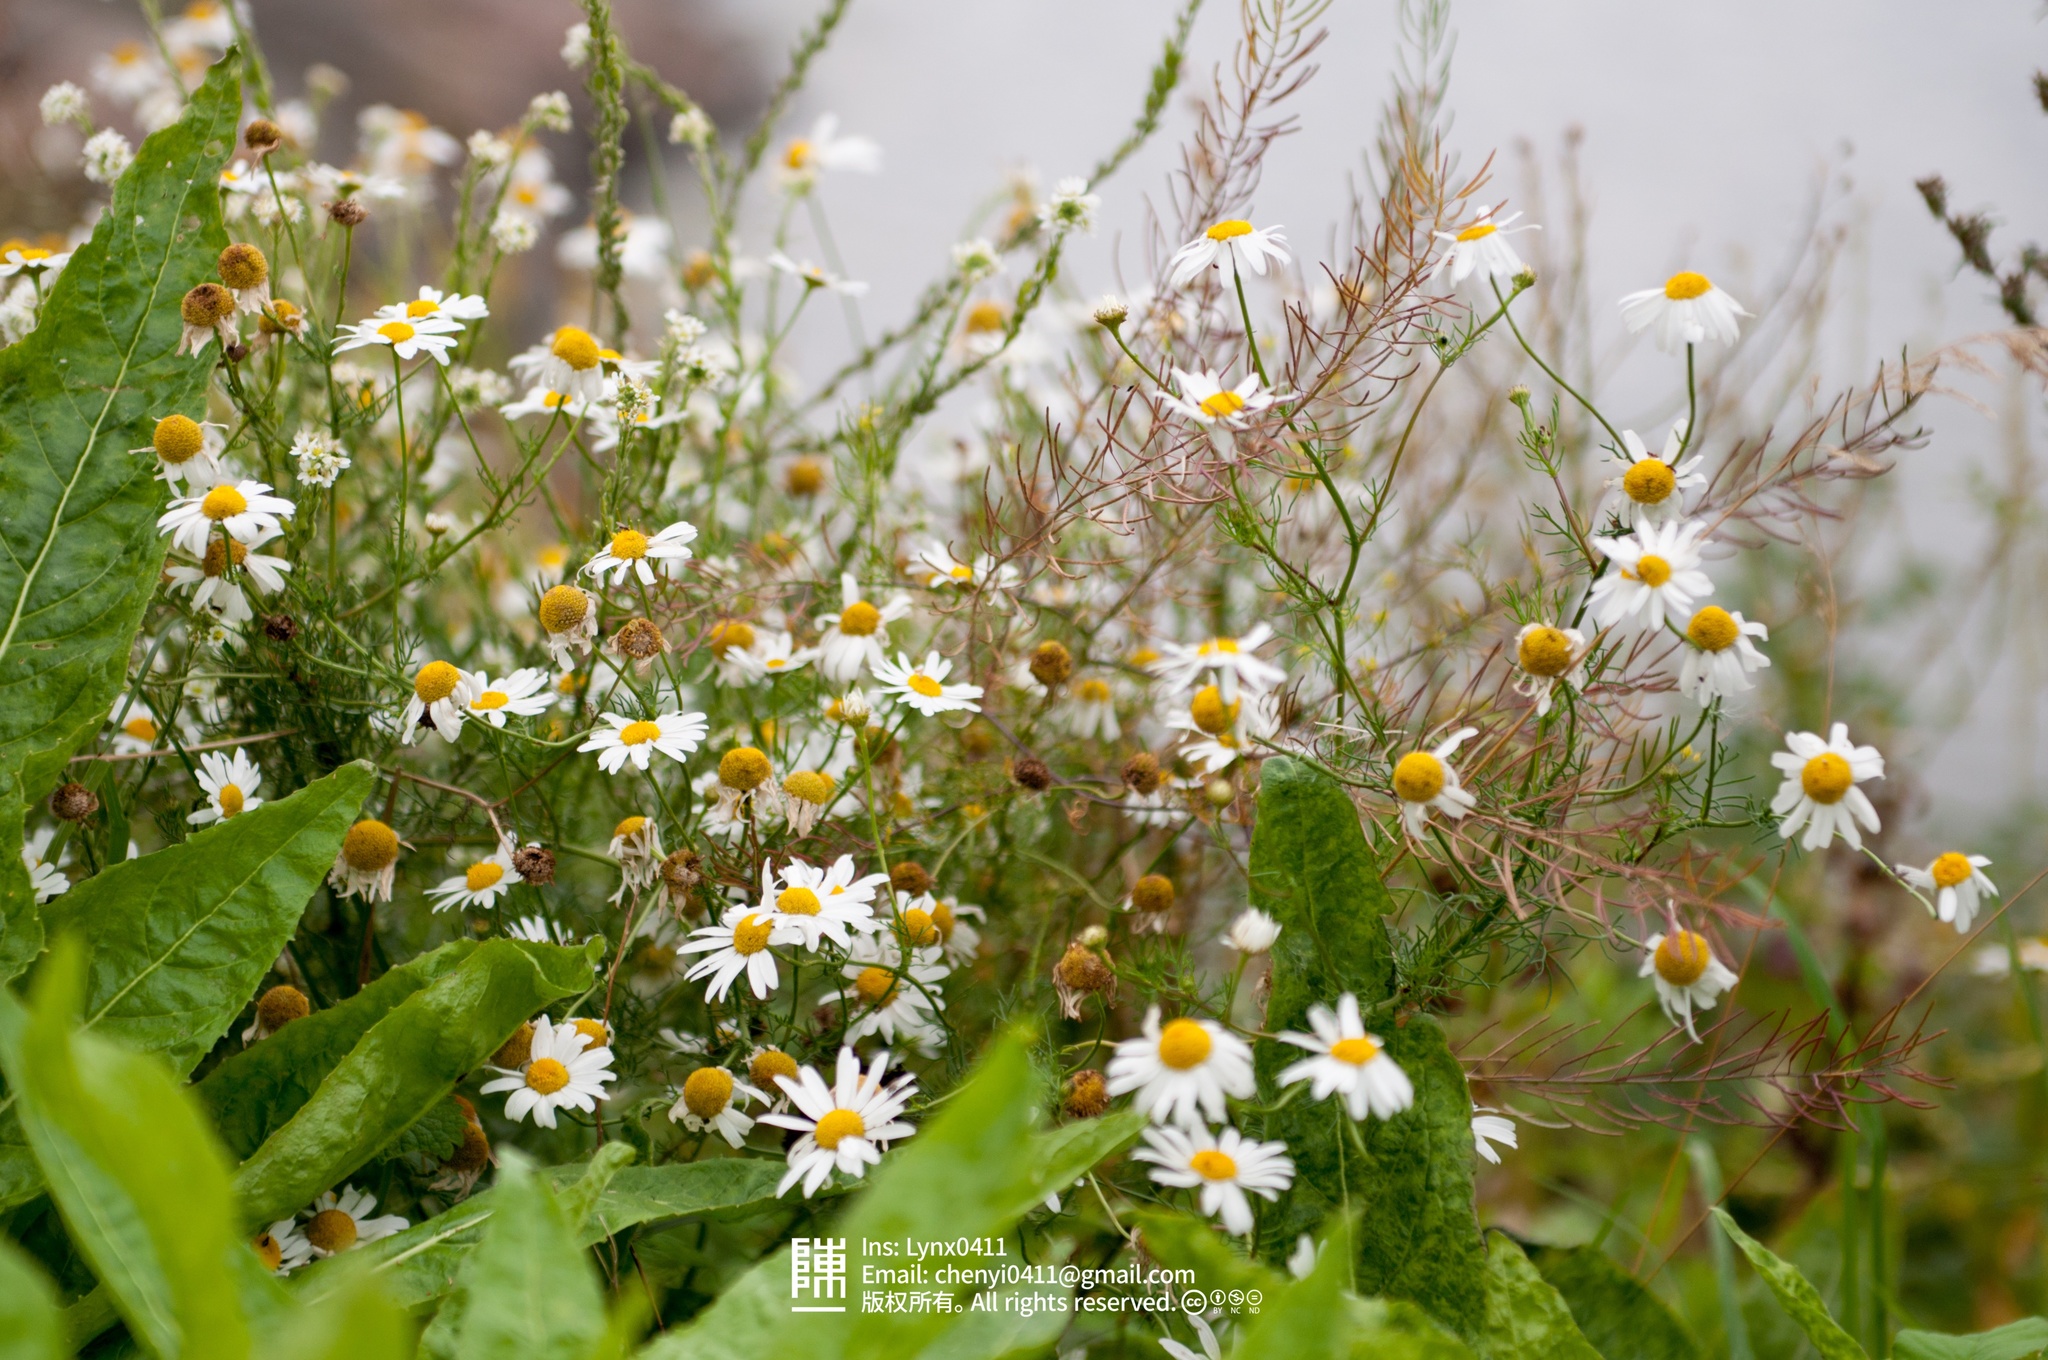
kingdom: Plantae
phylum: Tracheophyta
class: Magnoliopsida
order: Asterales
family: Asteraceae
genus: Tripleurospermum
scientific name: Tripleurospermum inodorum
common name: Scentless mayweed
